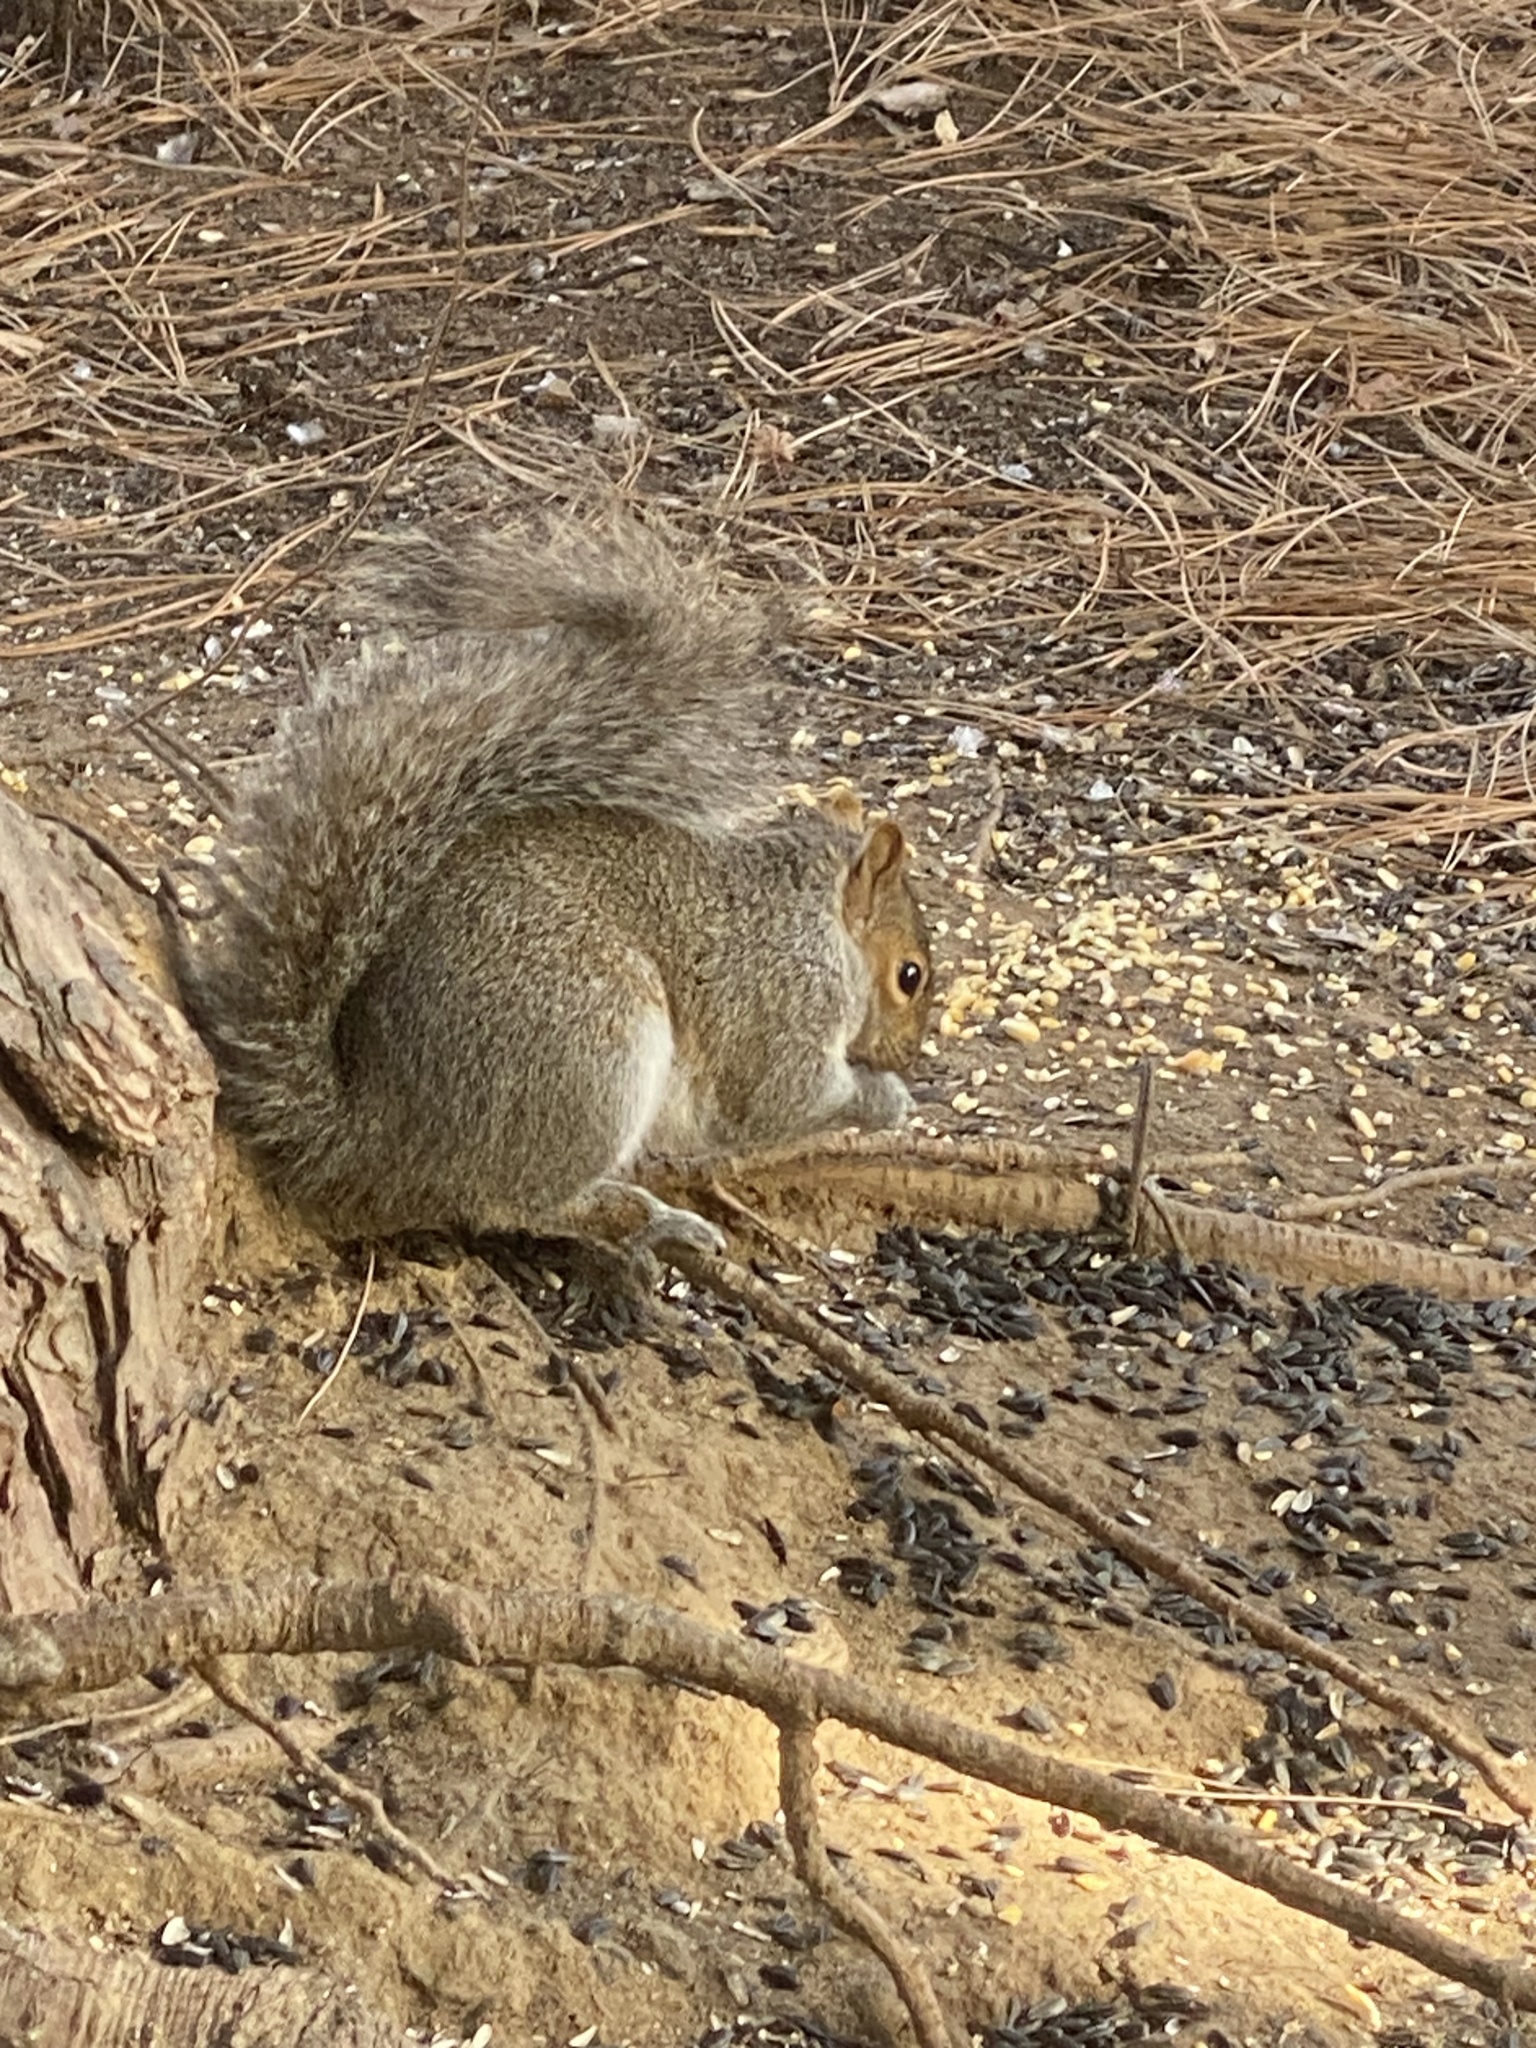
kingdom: Animalia
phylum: Chordata
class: Mammalia
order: Rodentia
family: Sciuridae
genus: Sciurus
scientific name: Sciurus carolinensis
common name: Eastern gray squirrel
